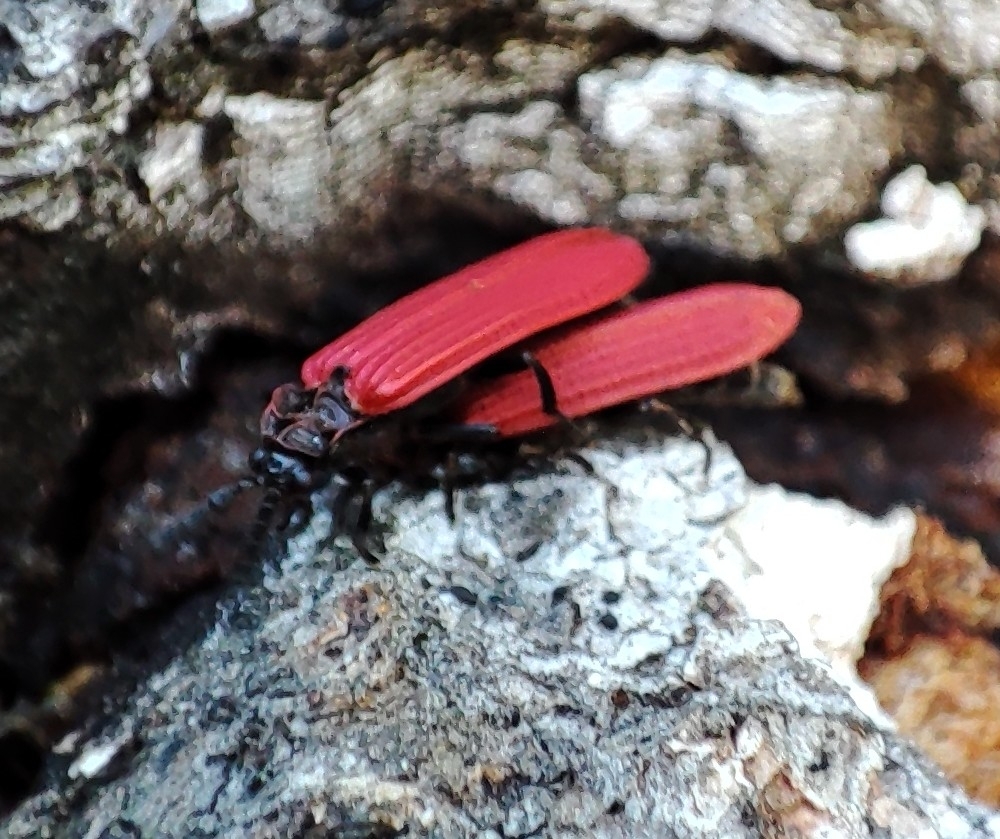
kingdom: Animalia
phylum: Arthropoda
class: Insecta
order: Coleoptera
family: Lycidae
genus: Xylobanellus
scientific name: Xylobanellus erythropterus
